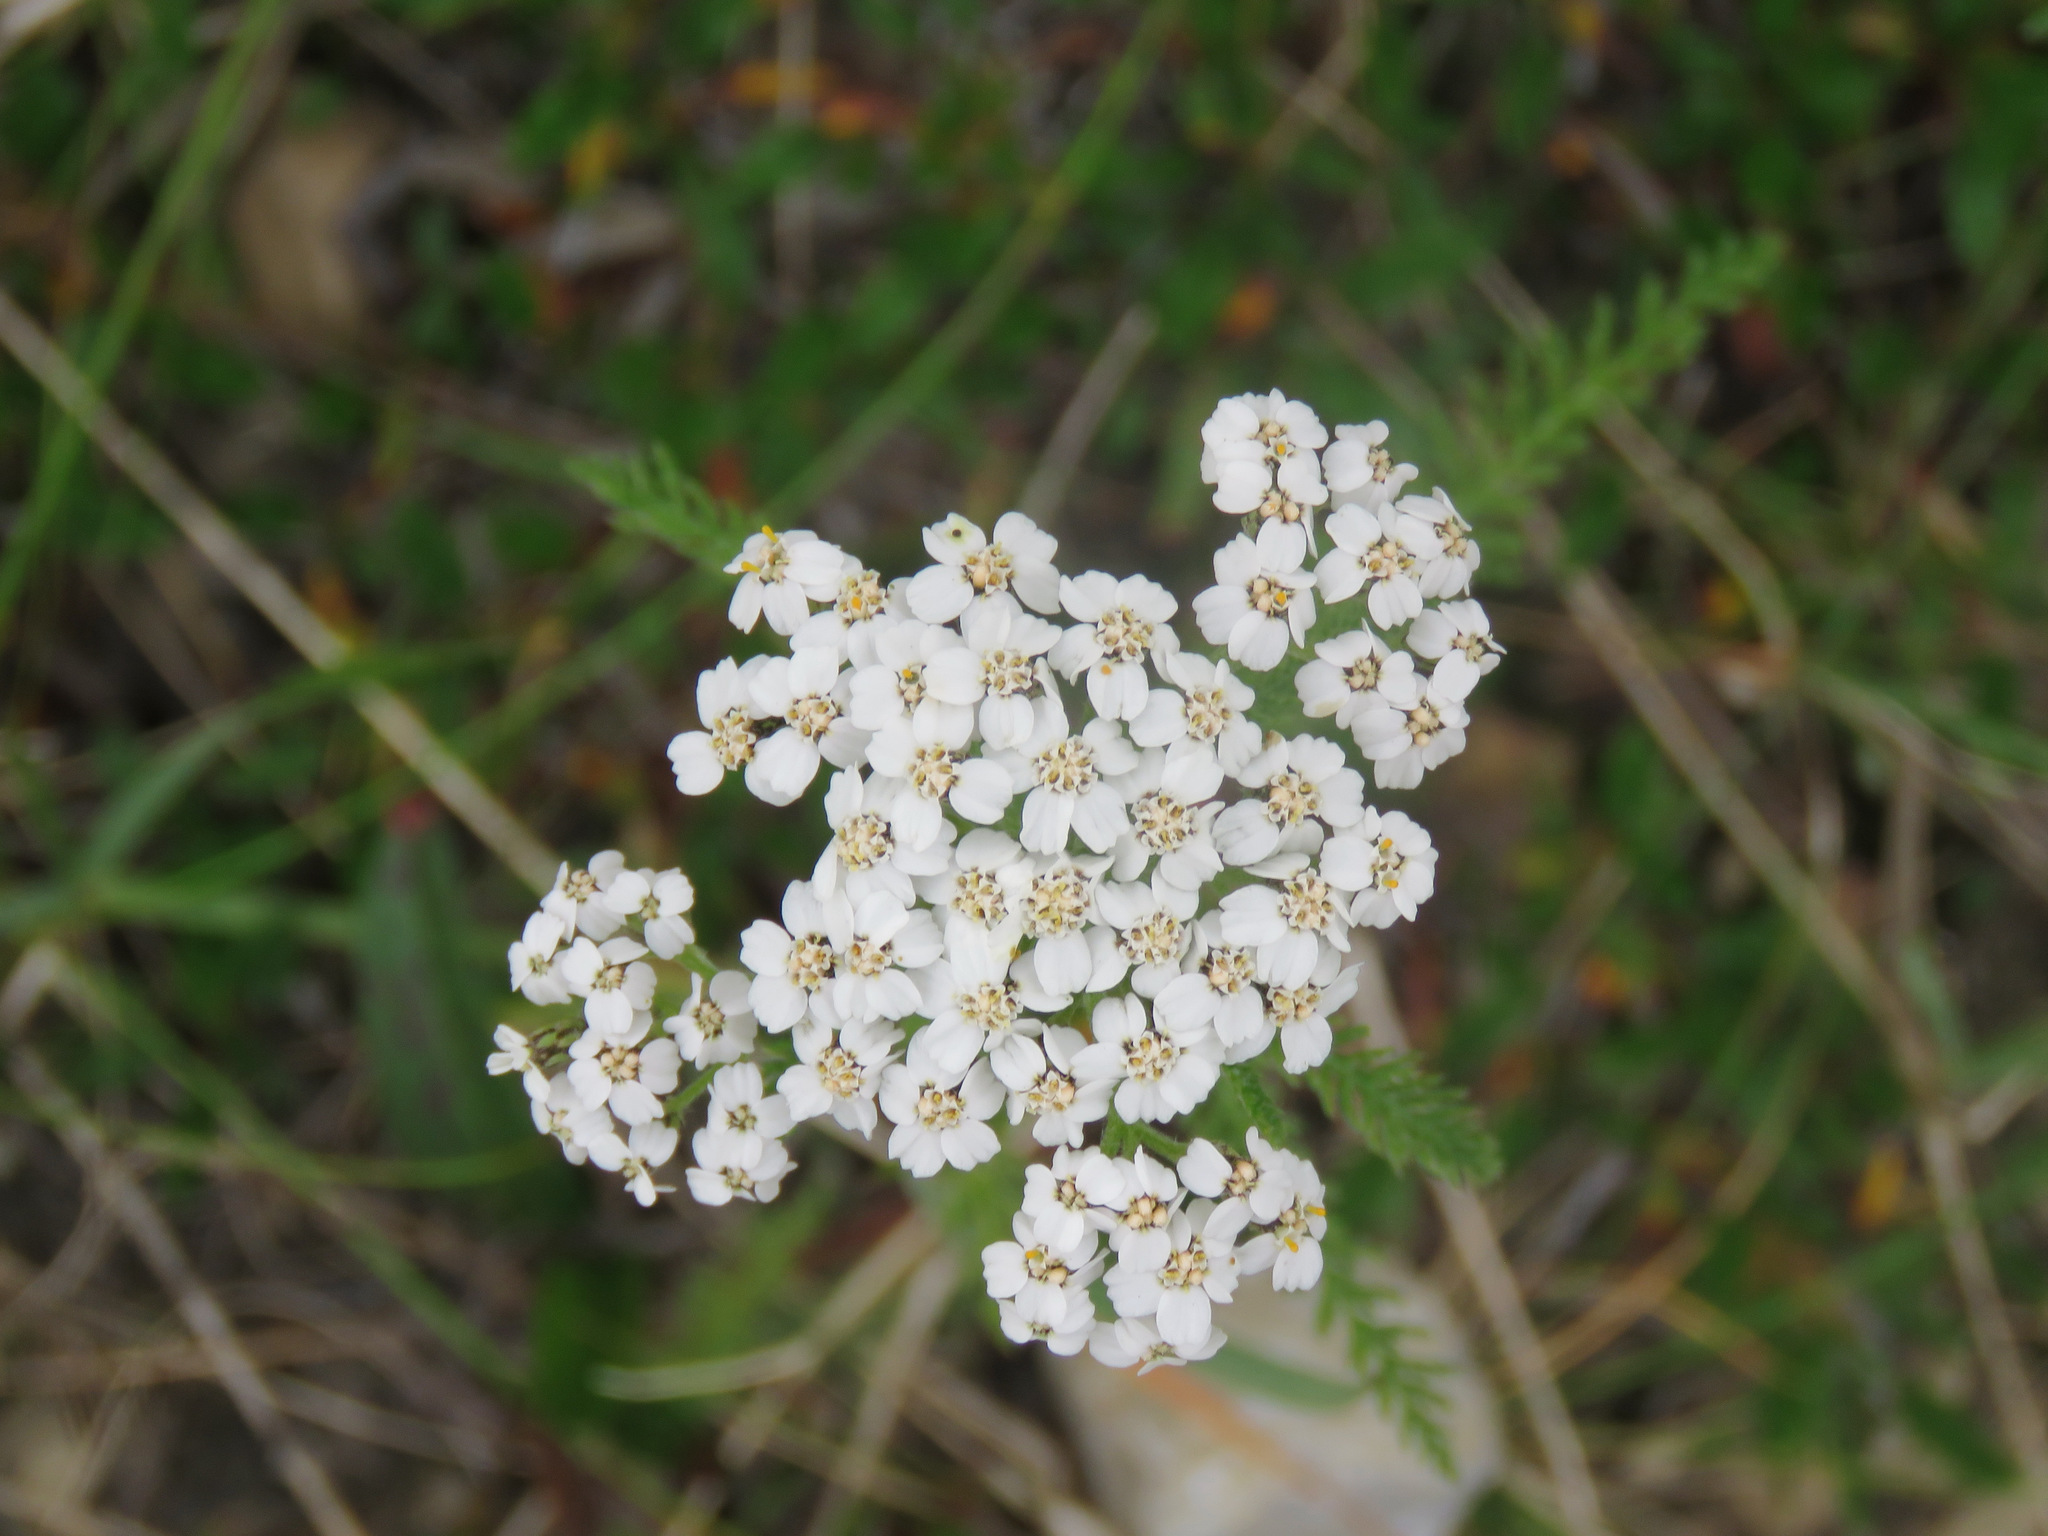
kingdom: Plantae
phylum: Tracheophyta
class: Magnoliopsida
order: Asterales
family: Asteraceae
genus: Achillea
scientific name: Achillea millefolium
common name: Yarrow
